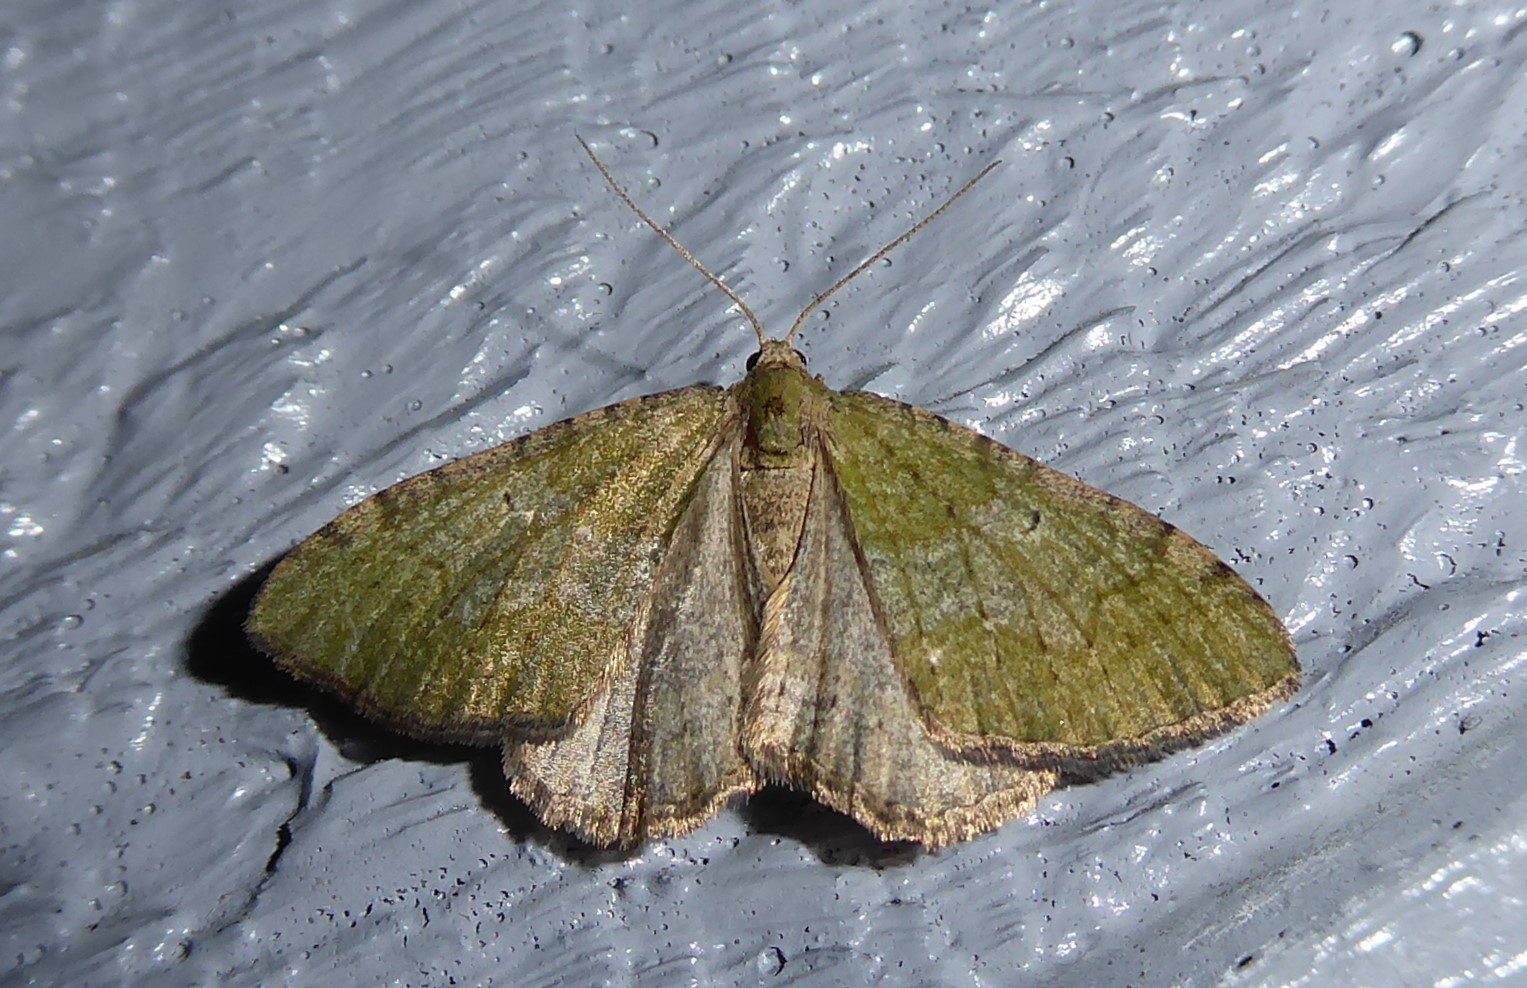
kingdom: Animalia
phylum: Arthropoda
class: Insecta
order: Lepidoptera
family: Geometridae
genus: Epyaxa
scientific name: Epyaxa rosearia
